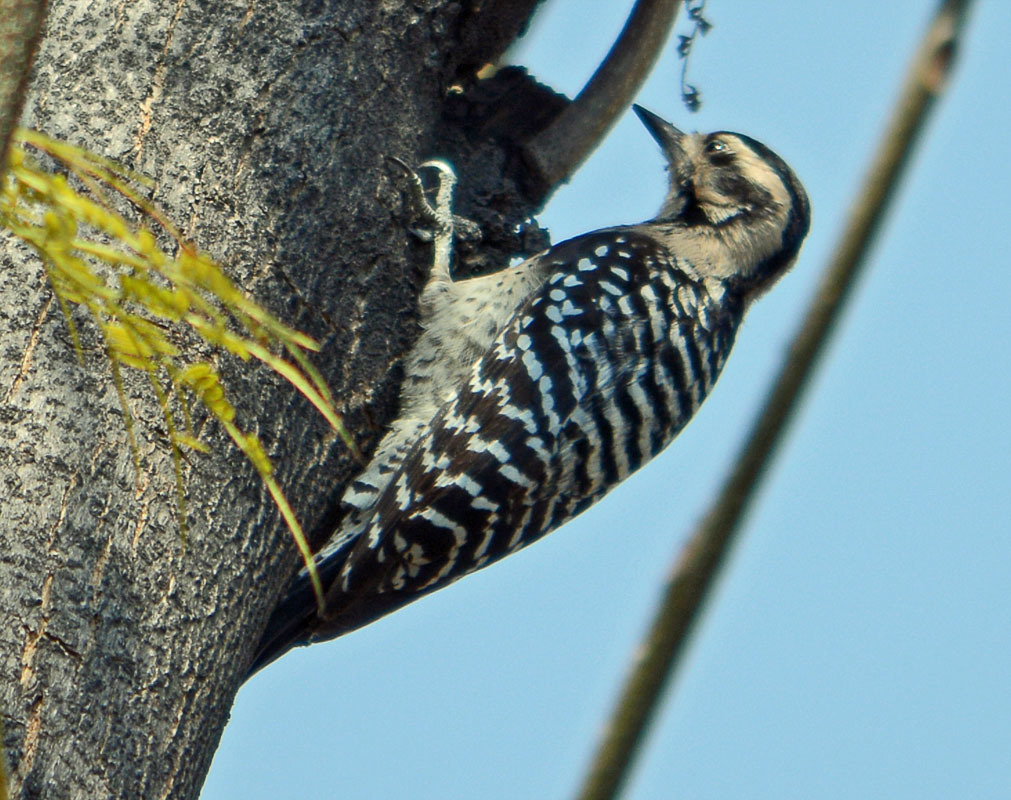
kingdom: Animalia
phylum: Chordata
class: Aves
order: Piciformes
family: Picidae
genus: Dryobates
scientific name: Dryobates scalaris
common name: Ladder-backed woodpecker
